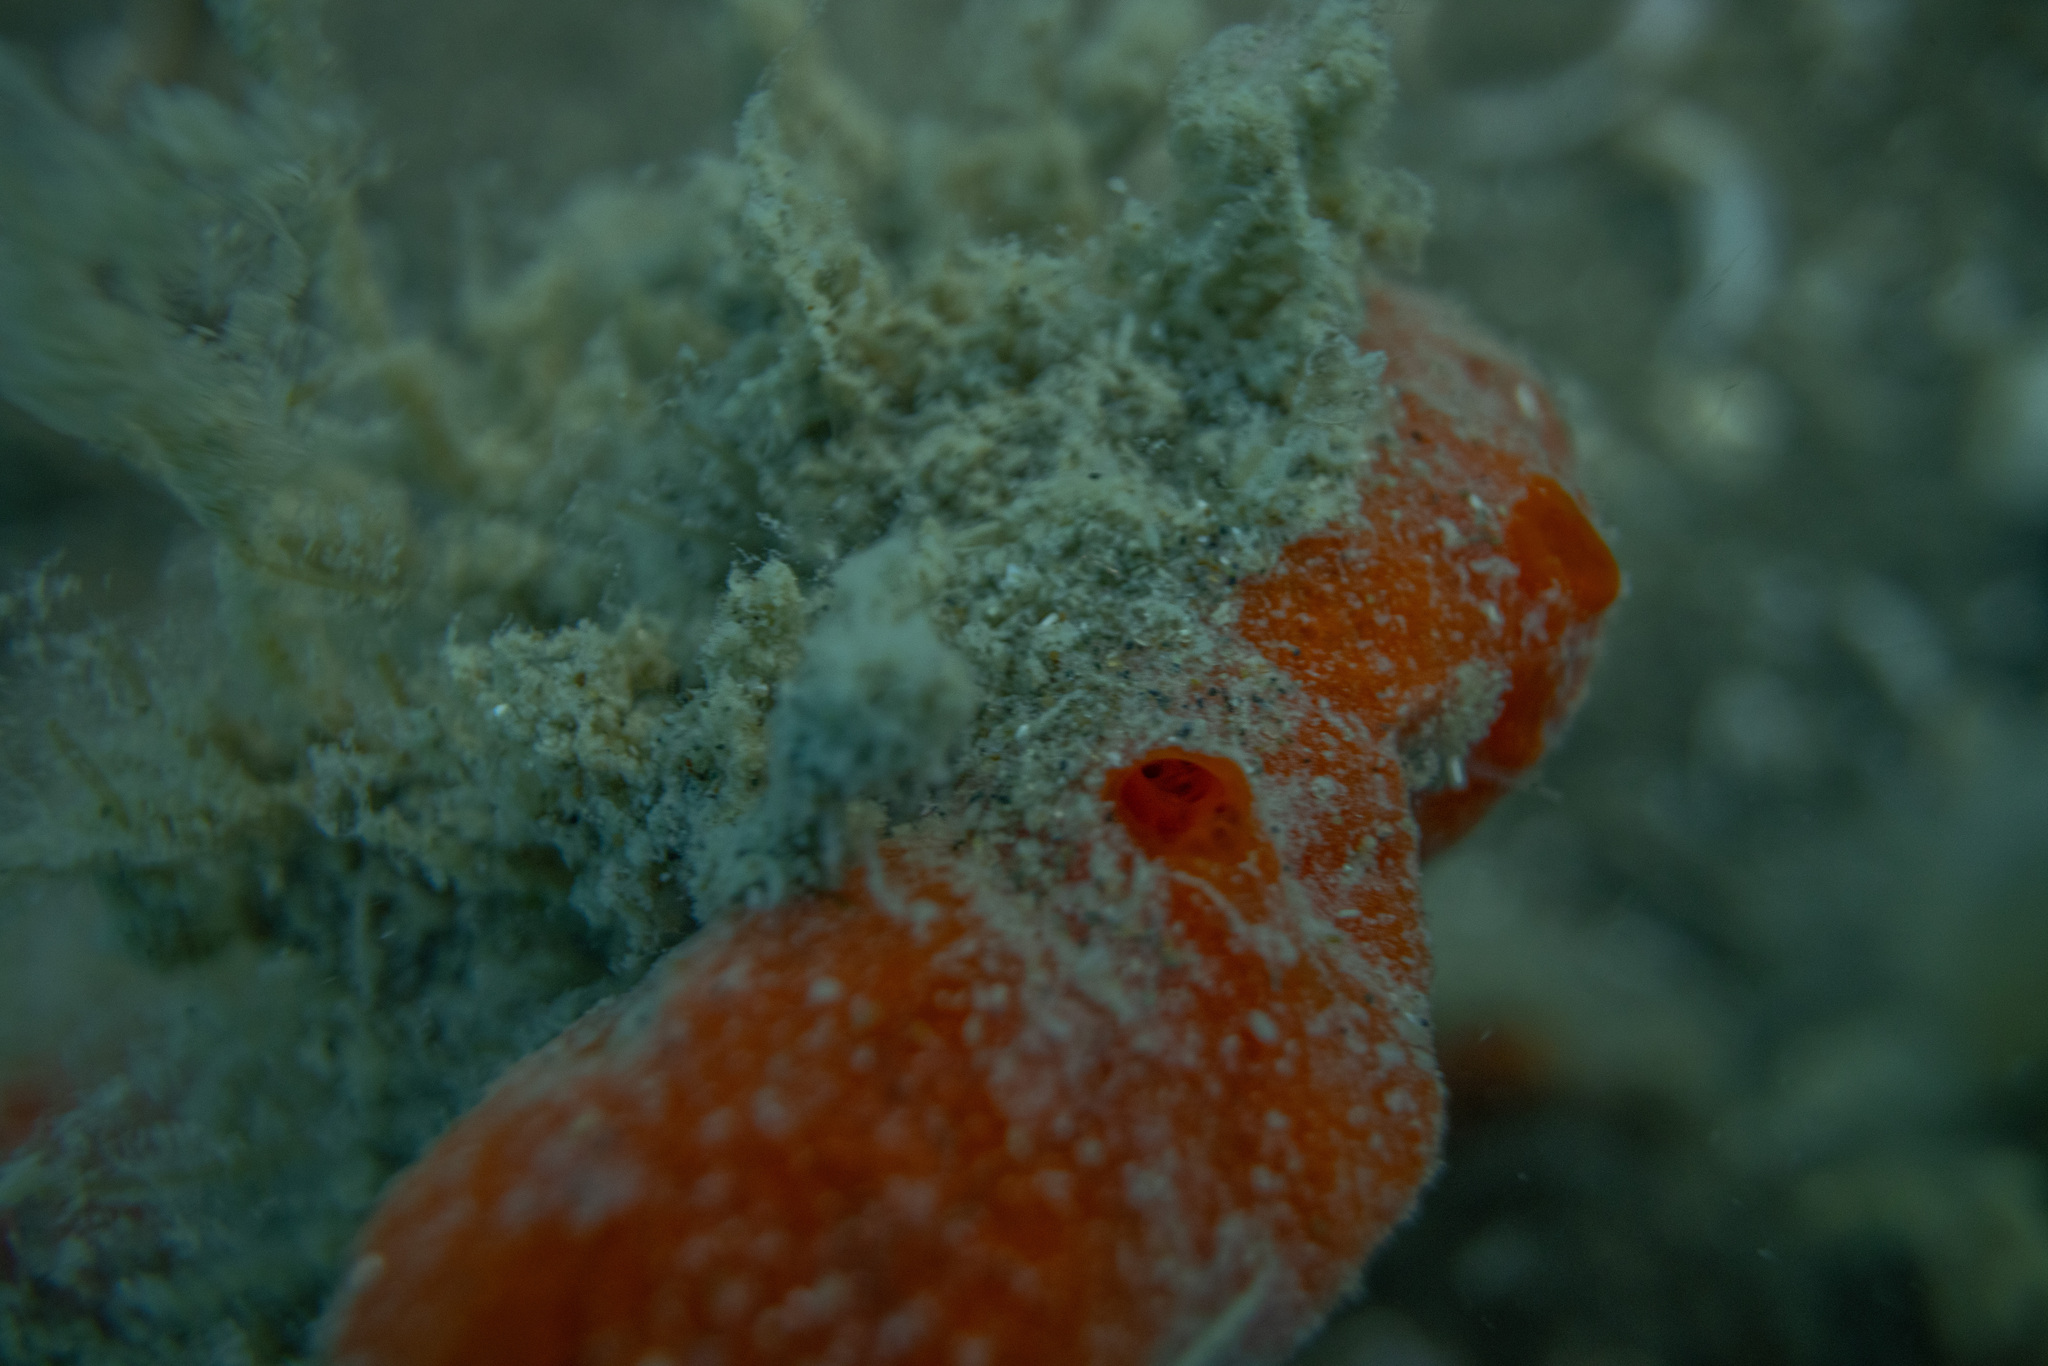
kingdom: Animalia
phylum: Porifera
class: Demospongiae
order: Poecilosclerida
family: Crellidae
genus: Crella
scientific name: Crella incrustans
